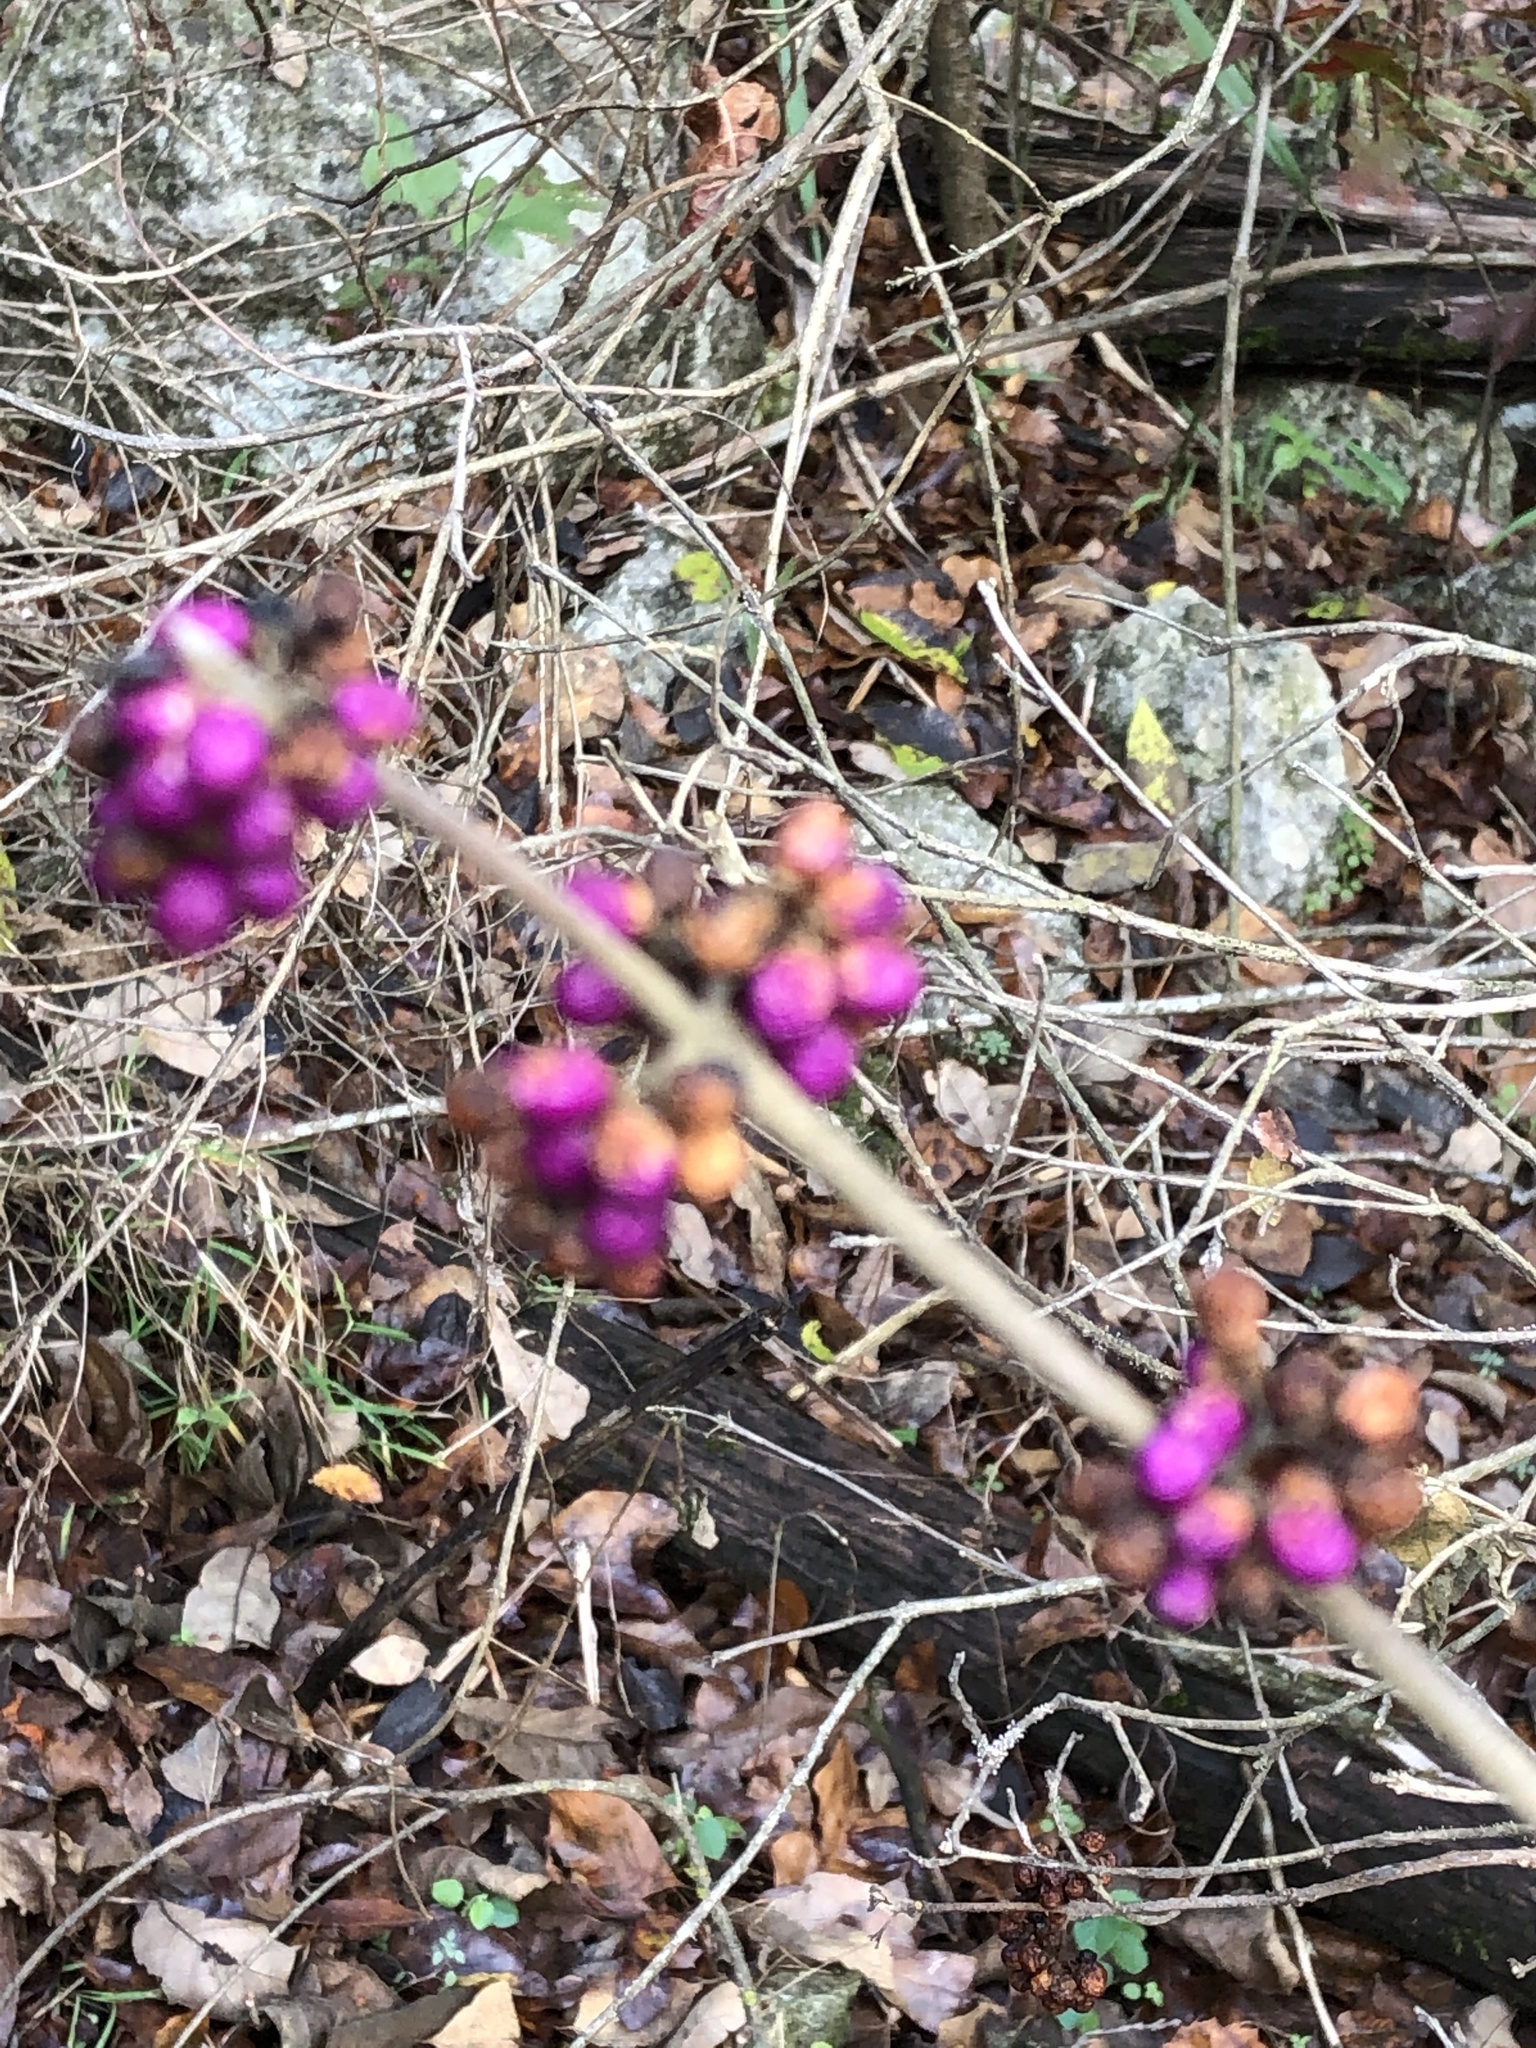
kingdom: Plantae
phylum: Tracheophyta
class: Magnoliopsida
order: Lamiales
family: Lamiaceae
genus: Callicarpa
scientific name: Callicarpa americana
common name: American beautyberry
